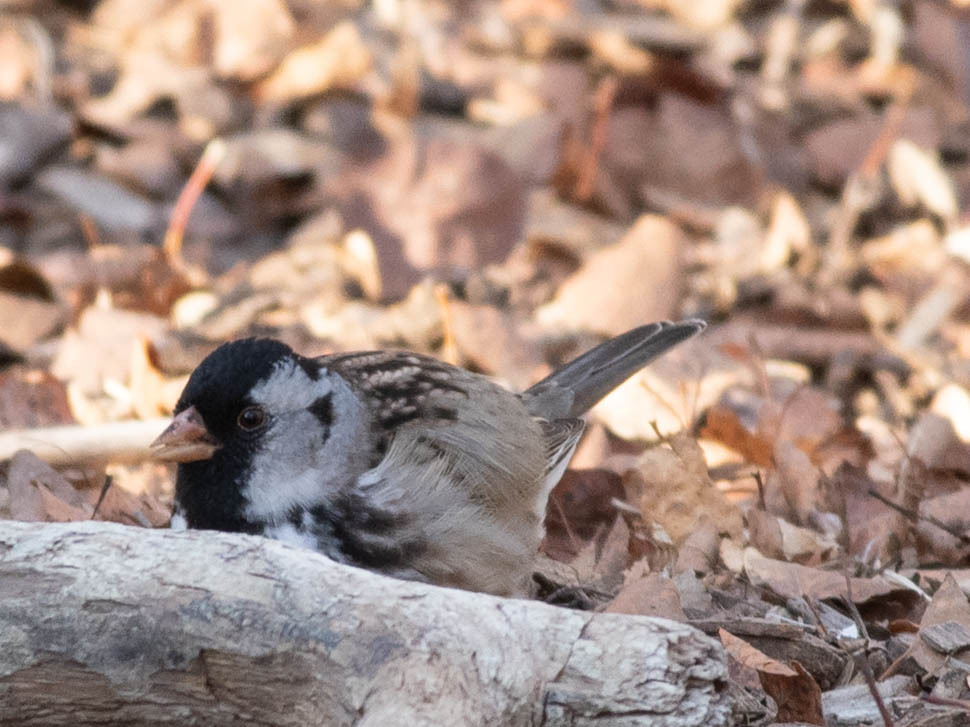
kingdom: Animalia
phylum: Chordata
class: Aves
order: Passeriformes
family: Passerellidae
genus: Zonotrichia
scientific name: Zonotrichia querula
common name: Harris's sparrow
